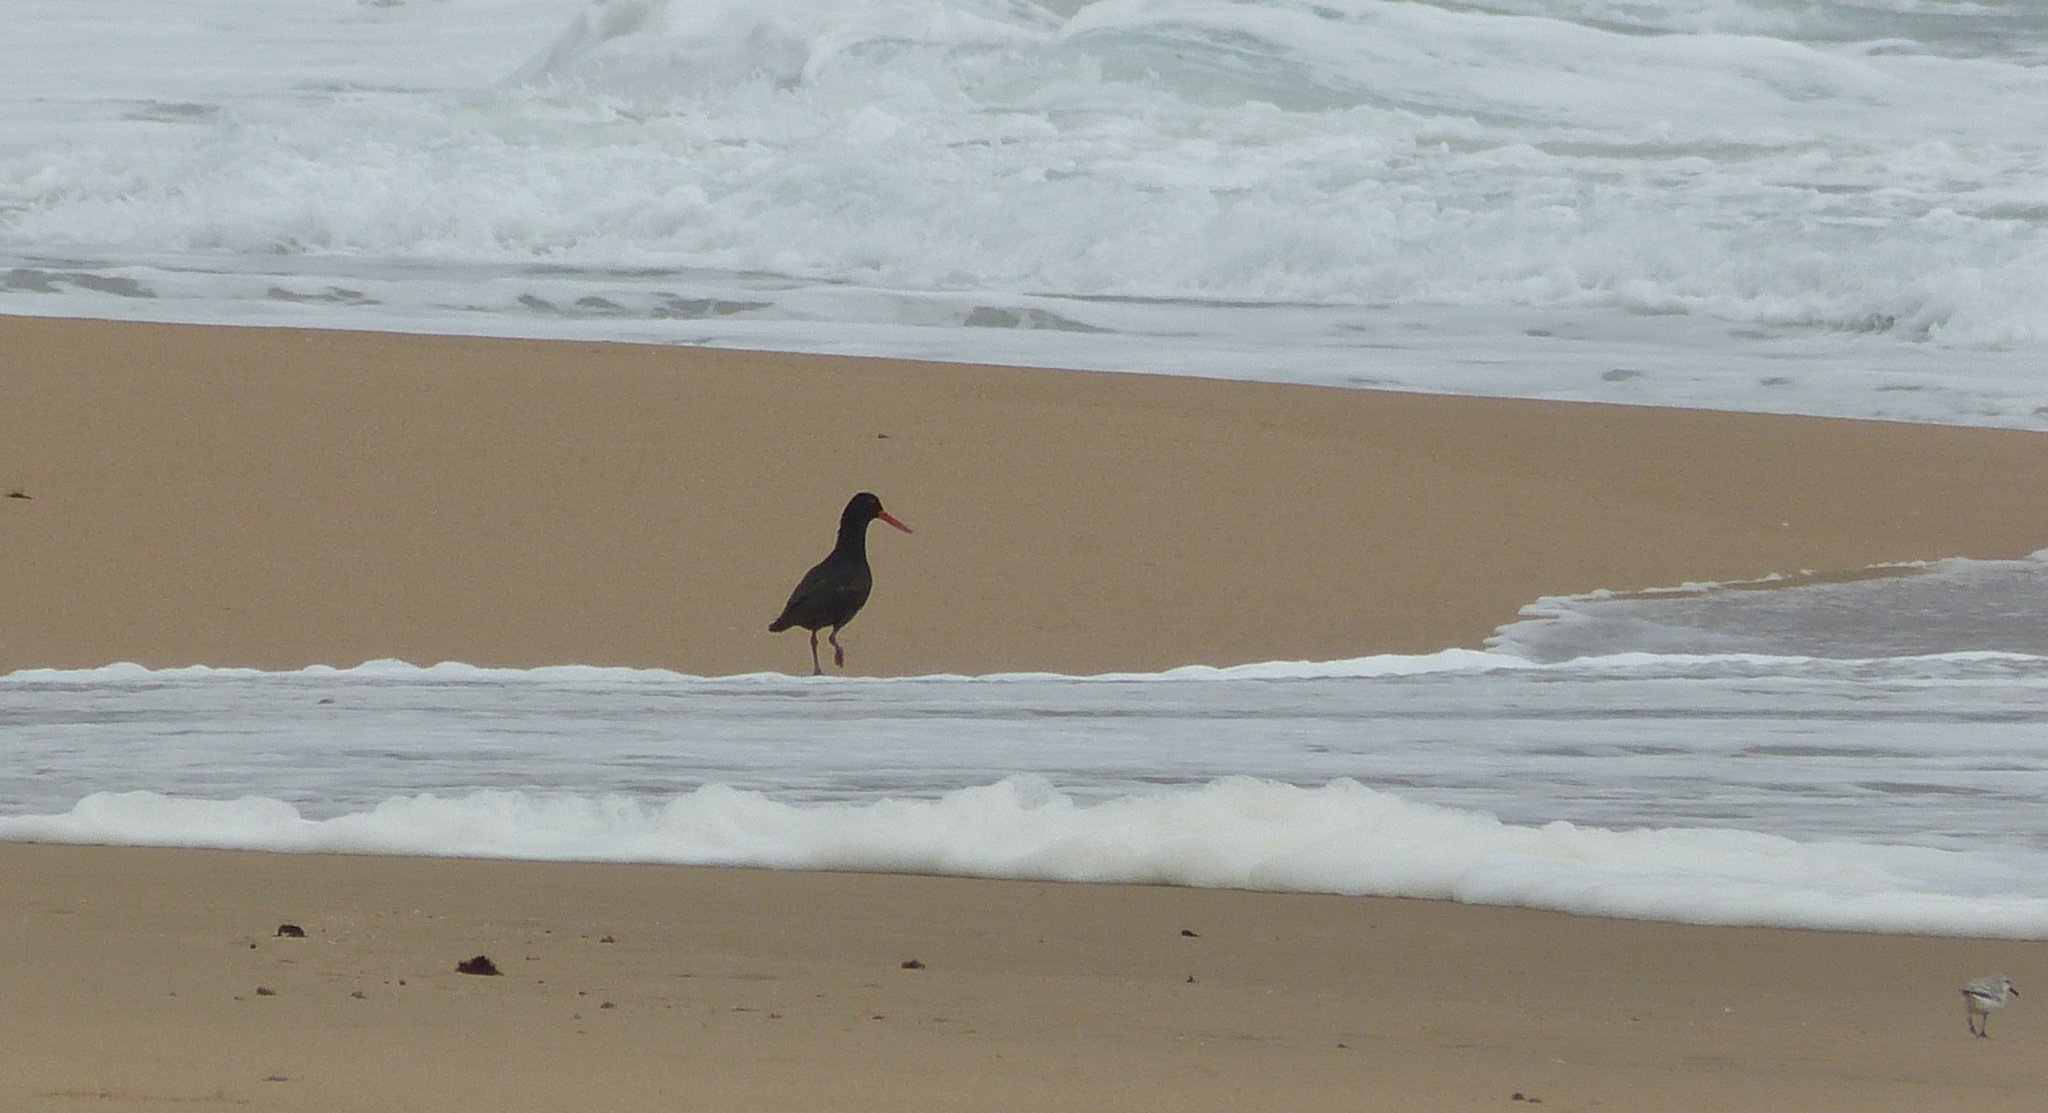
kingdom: Animalia
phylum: Chordata
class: Aves
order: Charadriiformes
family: Haematopodidae
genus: Haematopus
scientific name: Haematopus moquini
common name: African oystercatcher
